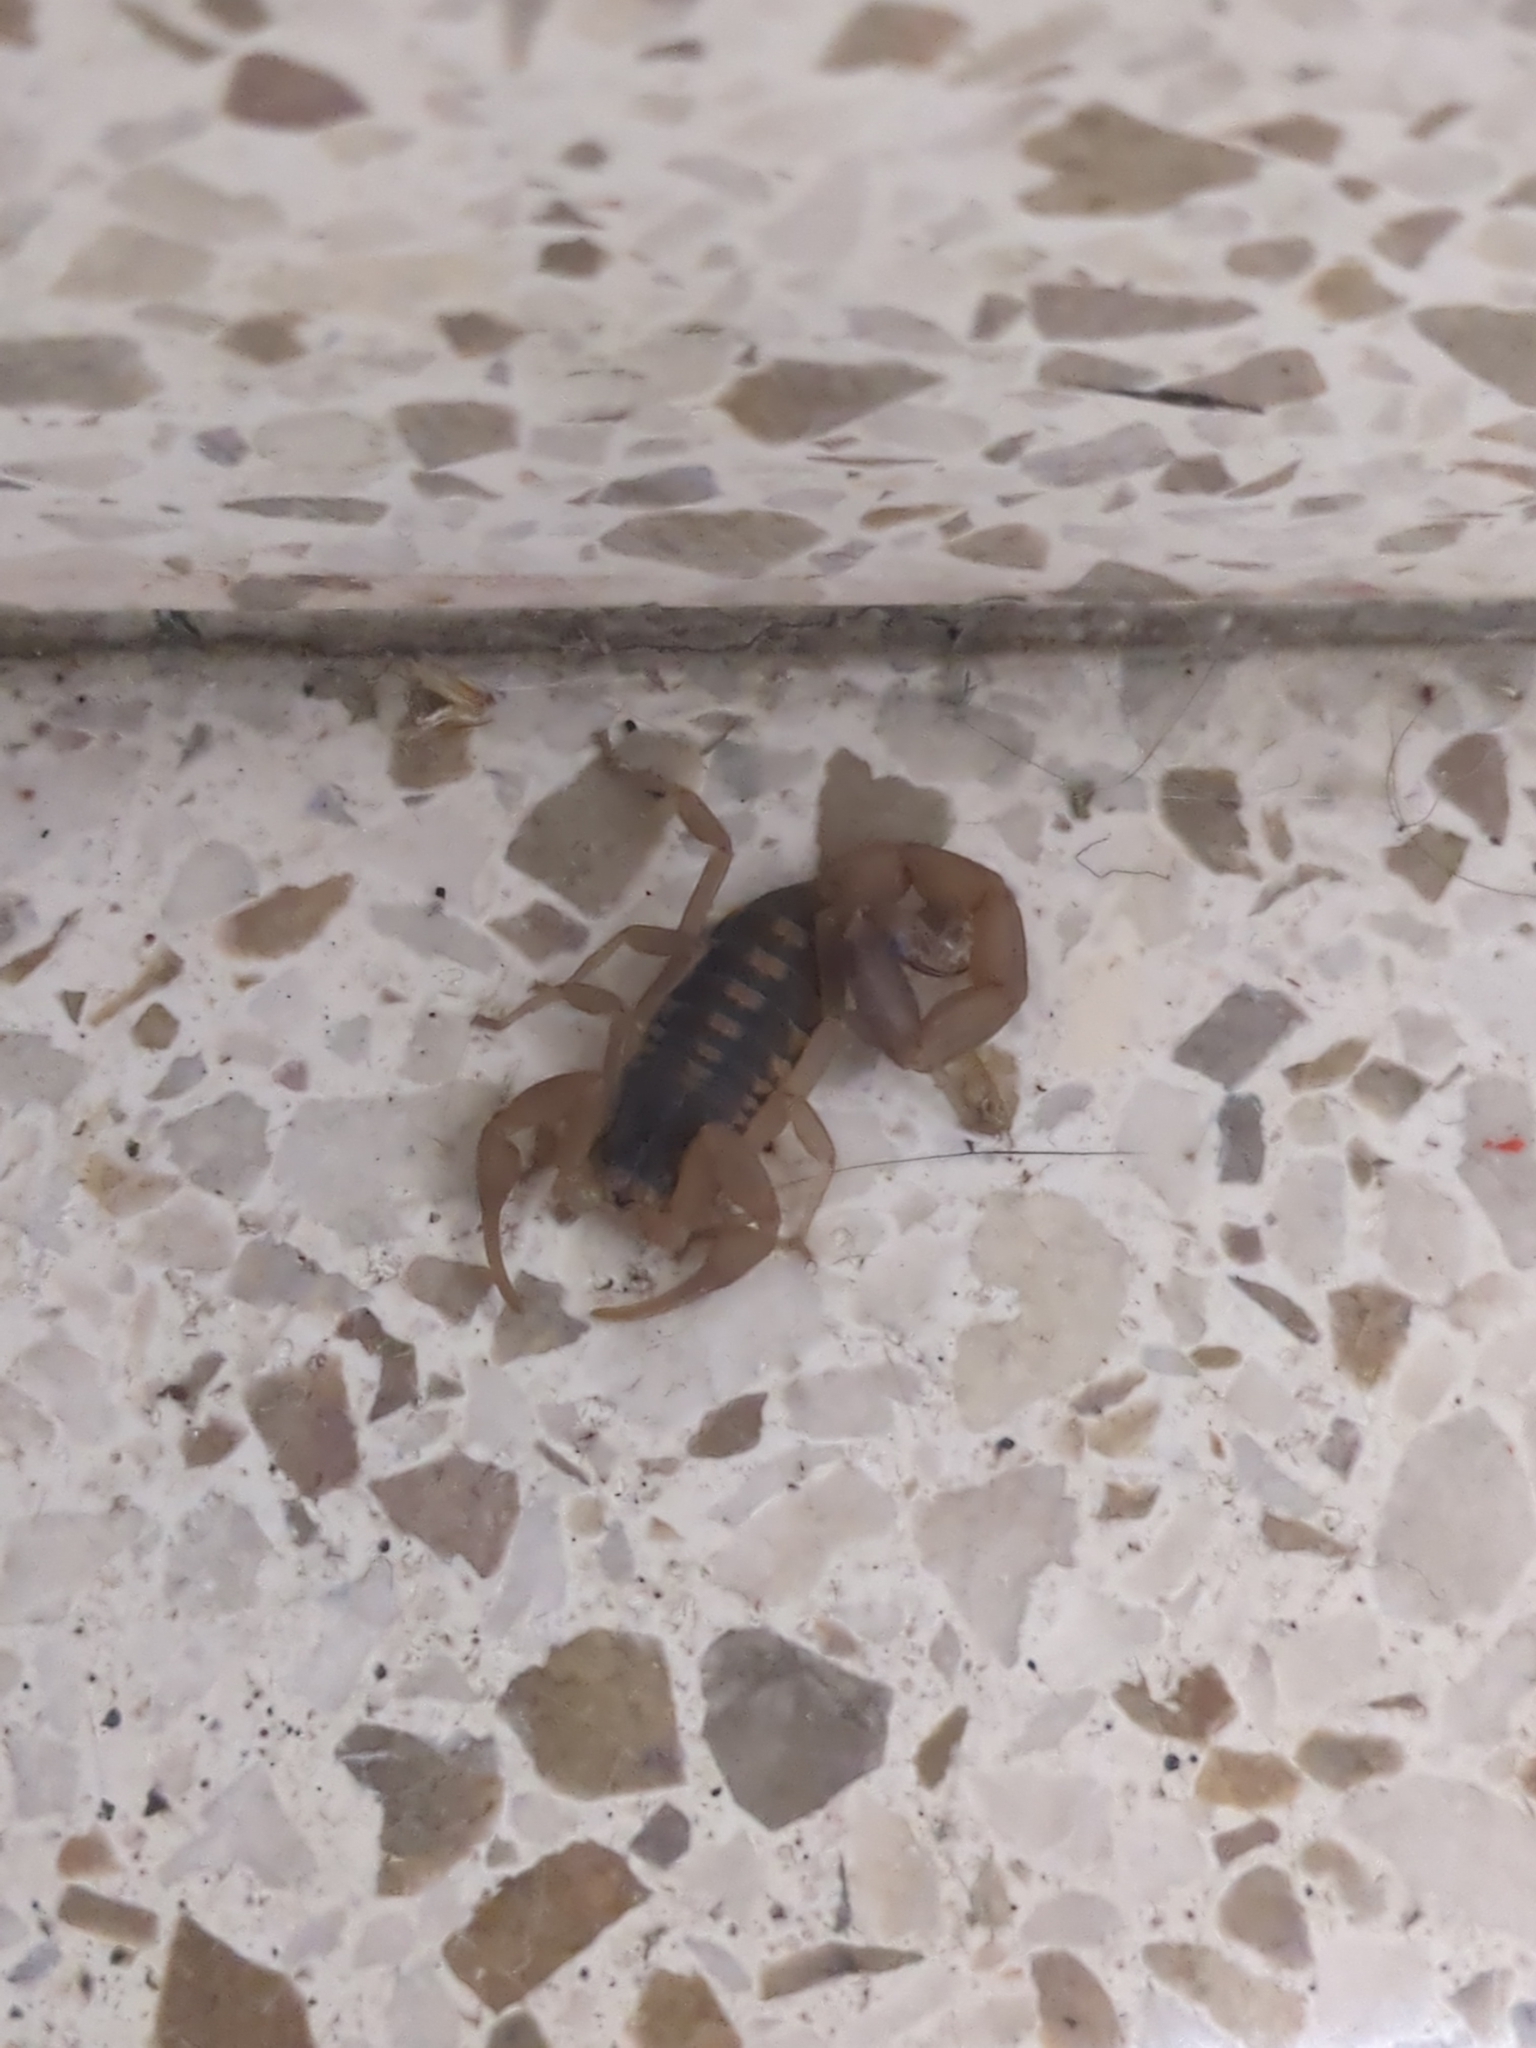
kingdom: Animalia
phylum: Arthropoda
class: Arachnida
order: Scorpiones
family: Buthidae
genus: Centruroides
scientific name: Centruroides vittatus
